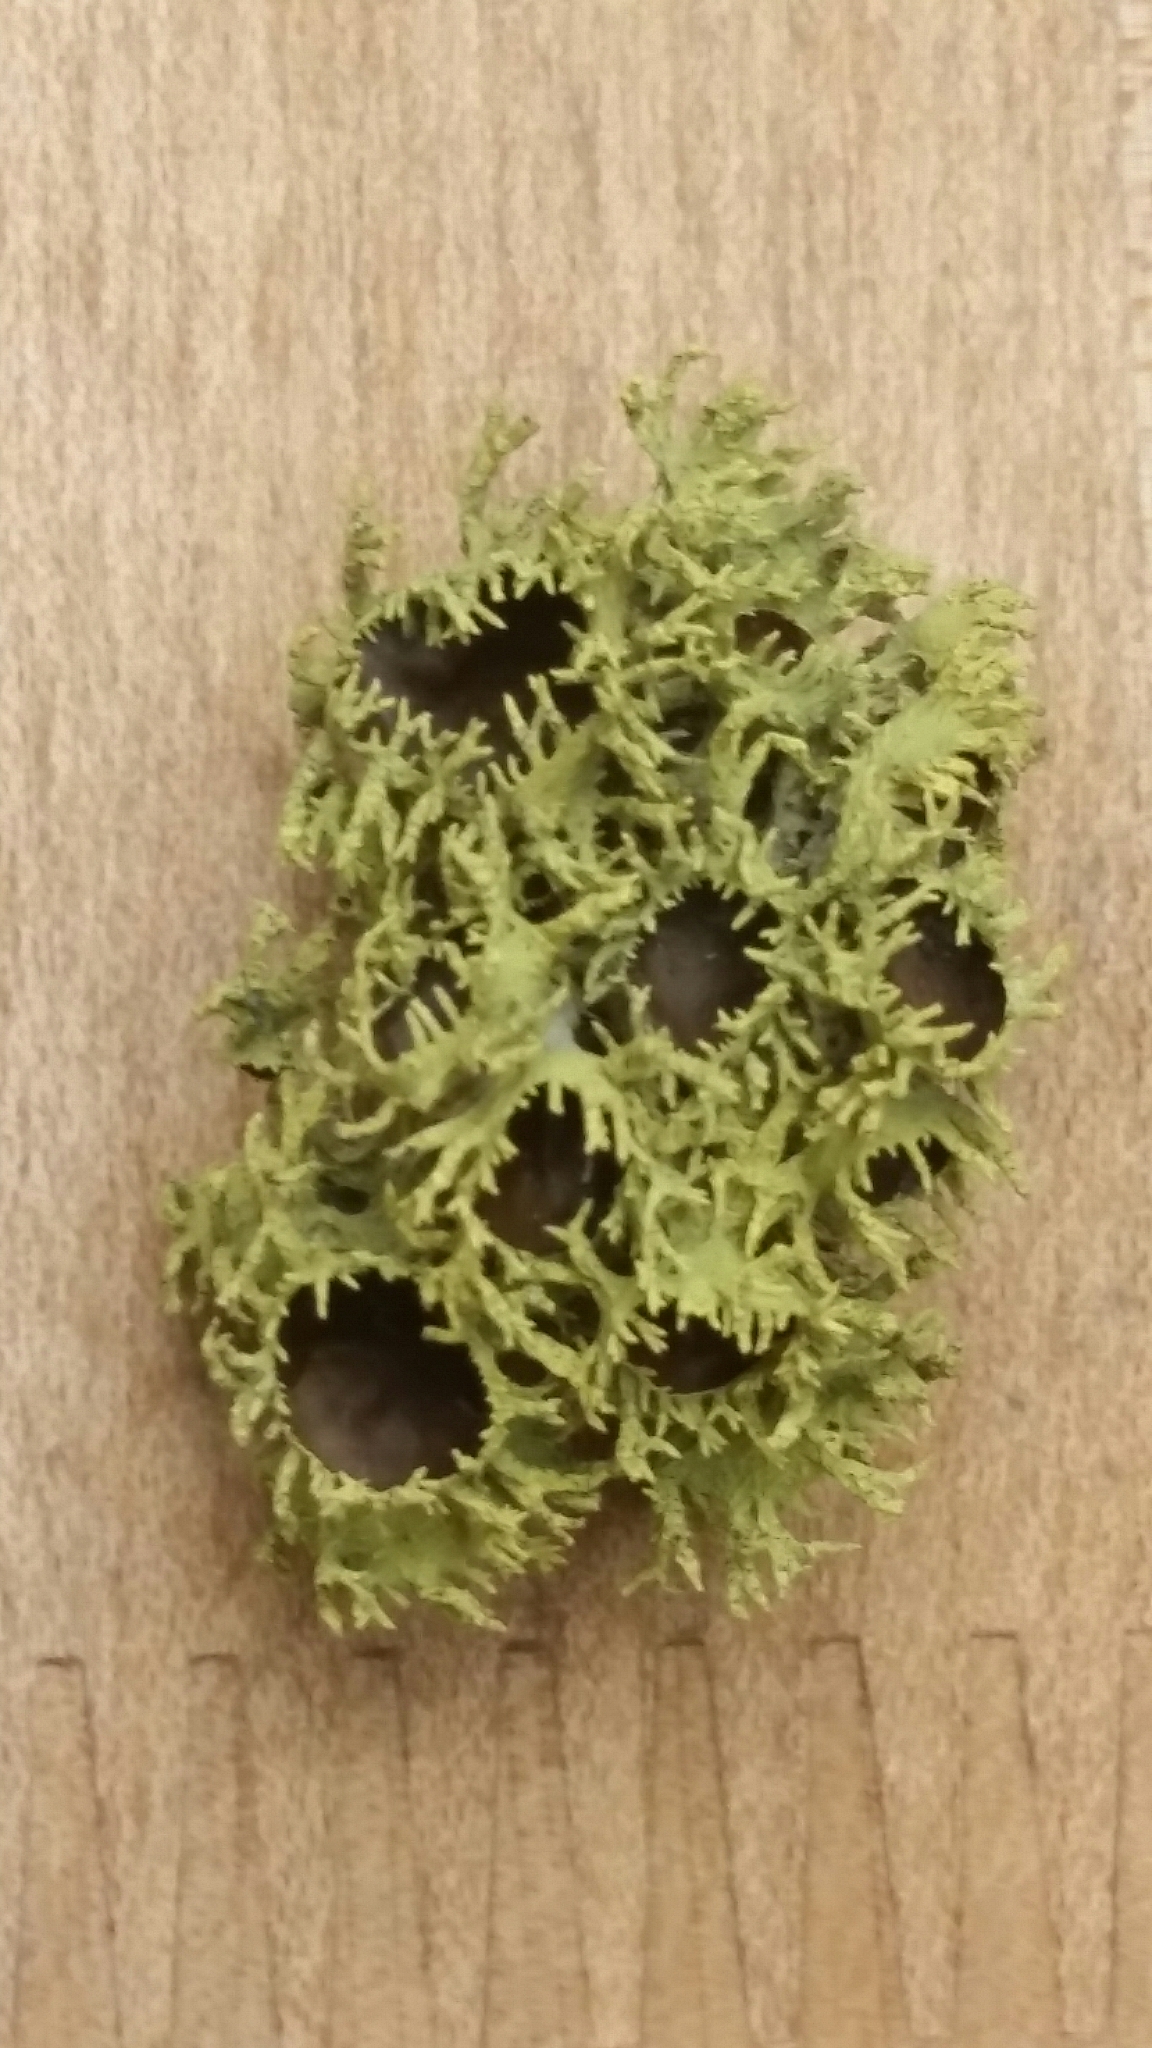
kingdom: Fungi
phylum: Ascomycota
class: Lecanoromycetes
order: Lecanorales
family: Parmeliaceae
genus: Letharia
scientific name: Letharia columbiana
